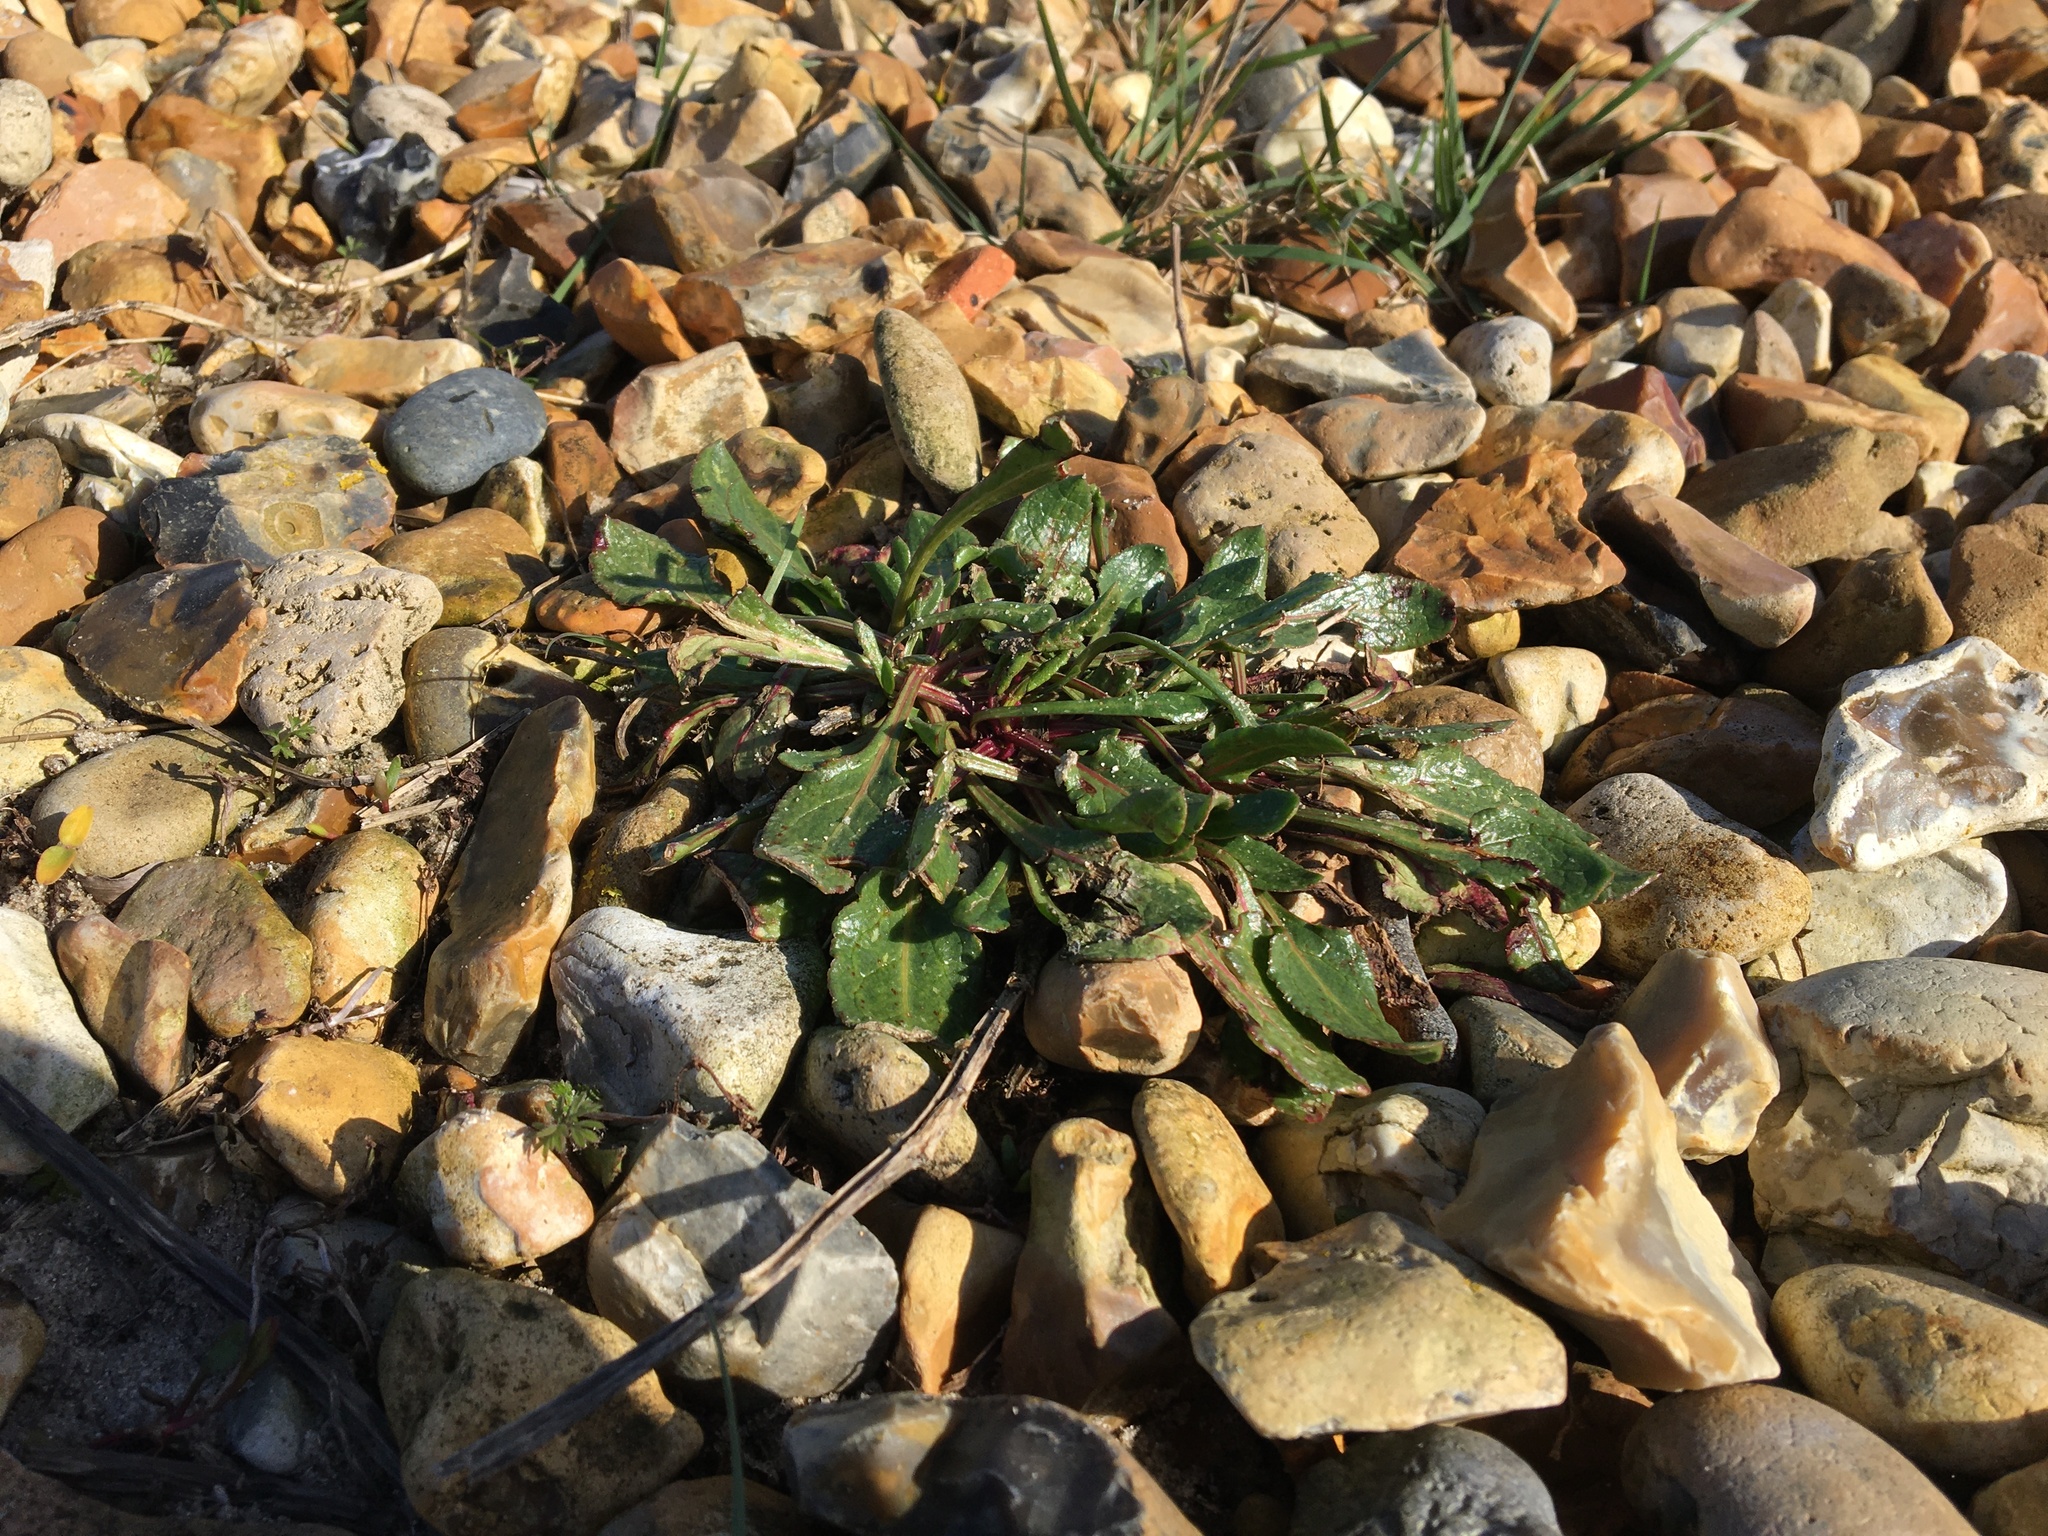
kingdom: Plantae
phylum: Tracheophyta
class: Magnoliopsida
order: Caryophyllales
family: Amaranthaceae
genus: Beta
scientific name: Beta vulgaris
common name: Beet
